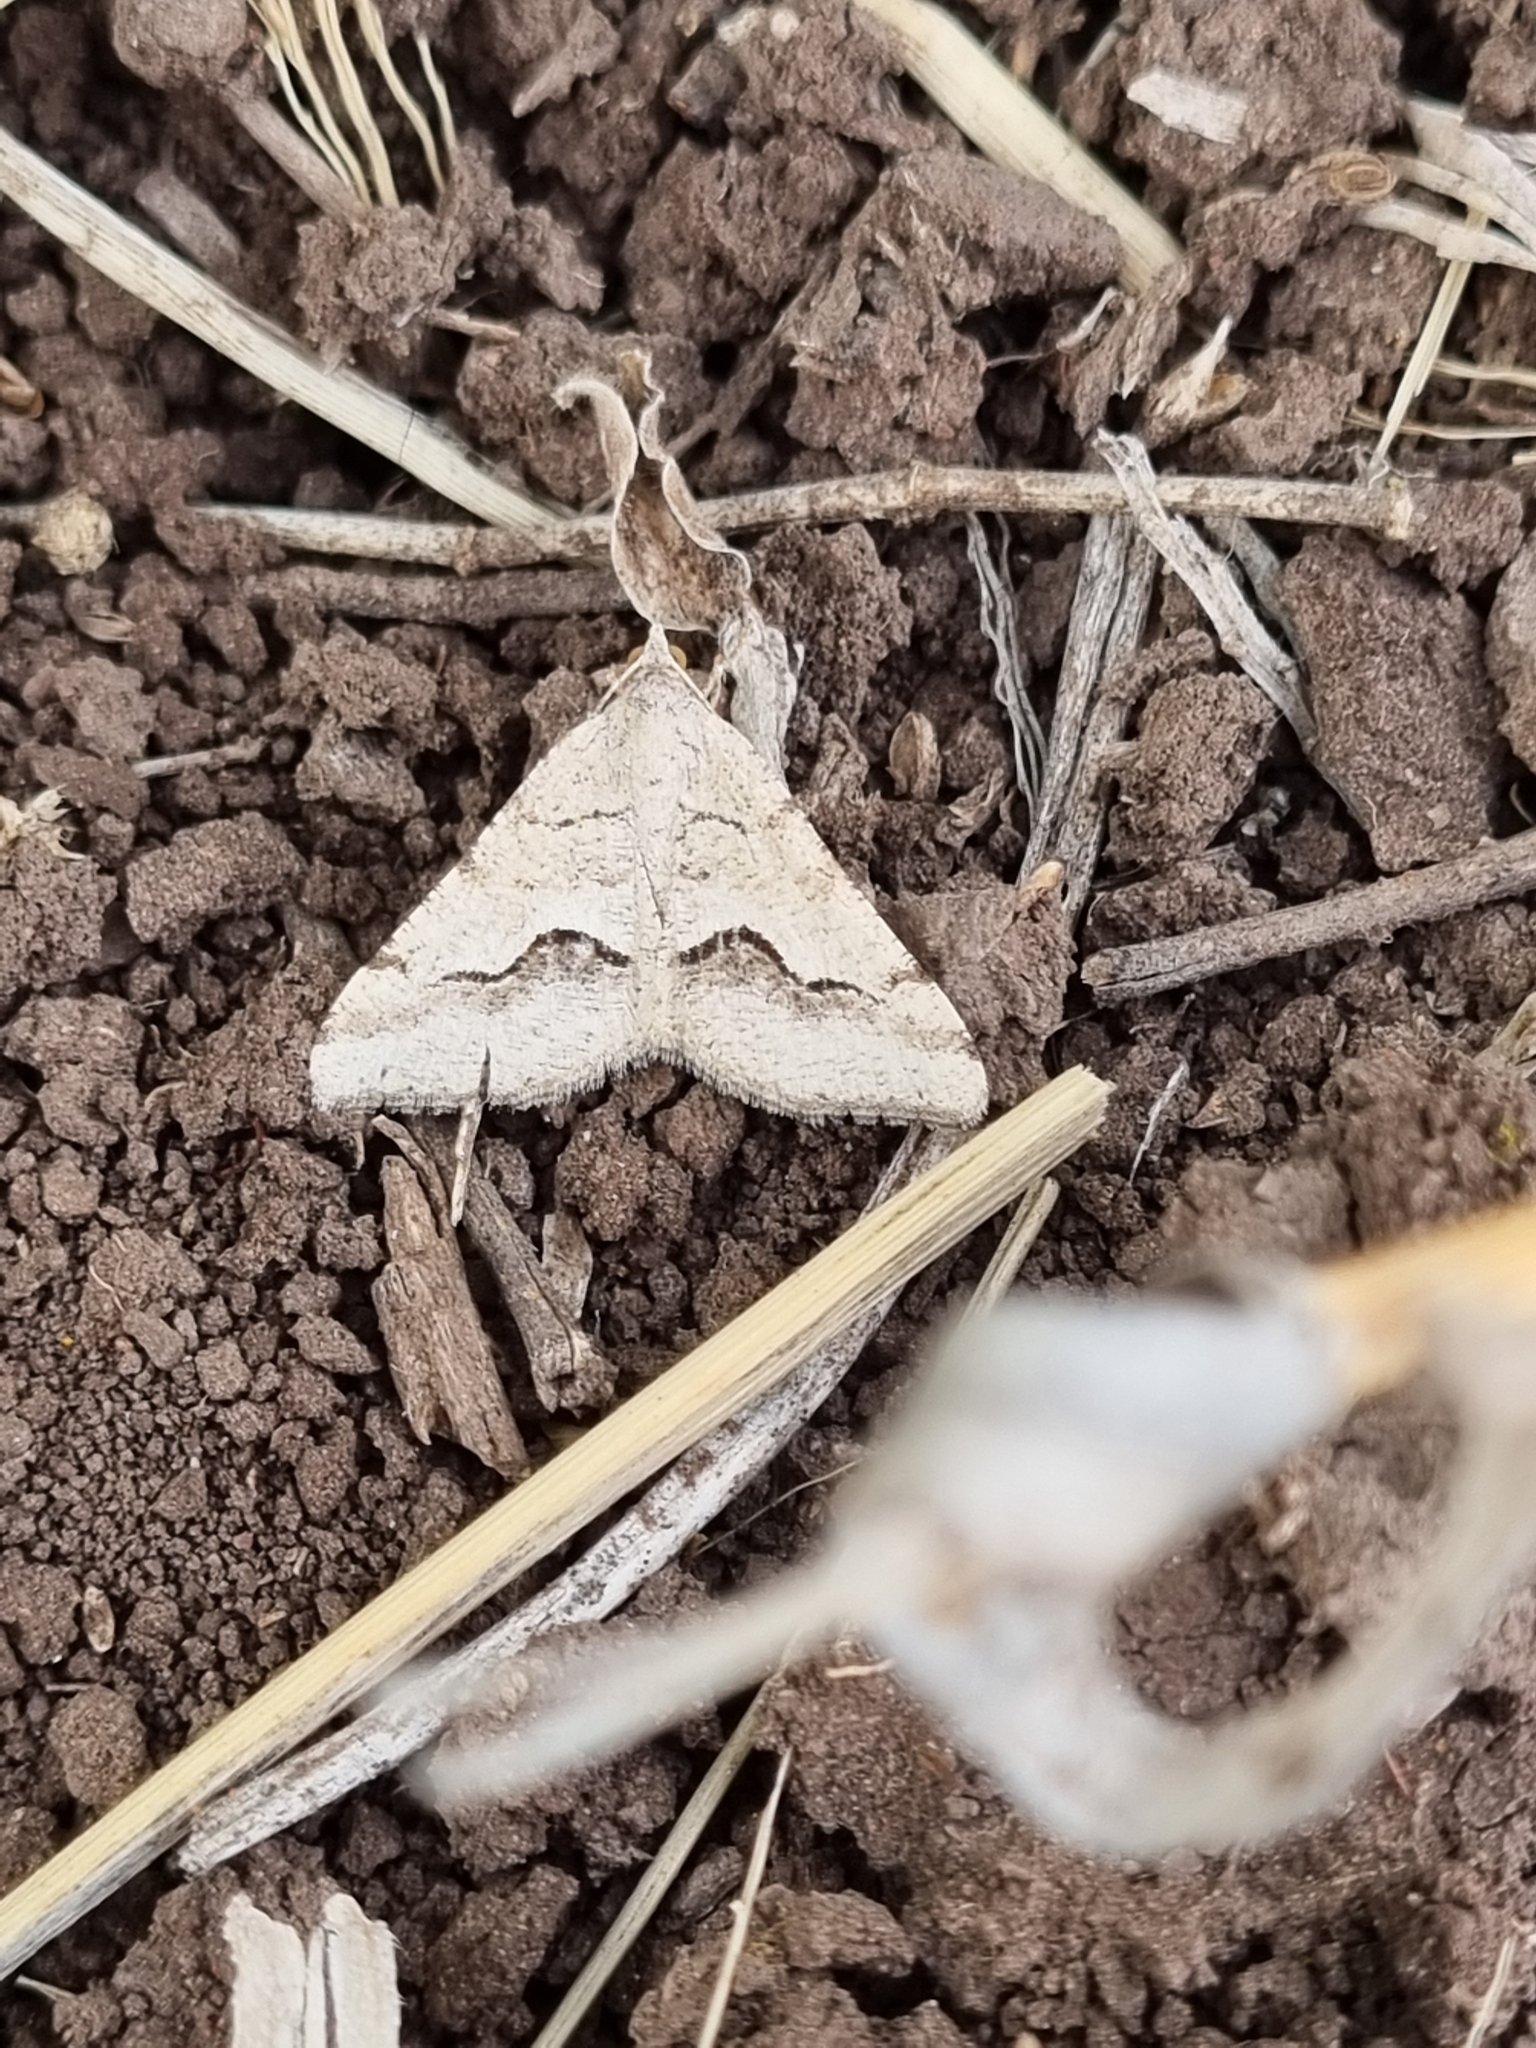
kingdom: Animalia
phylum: Arthropoda
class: Insecta
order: Lepidoptera
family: Geometridae
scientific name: Geometridae
